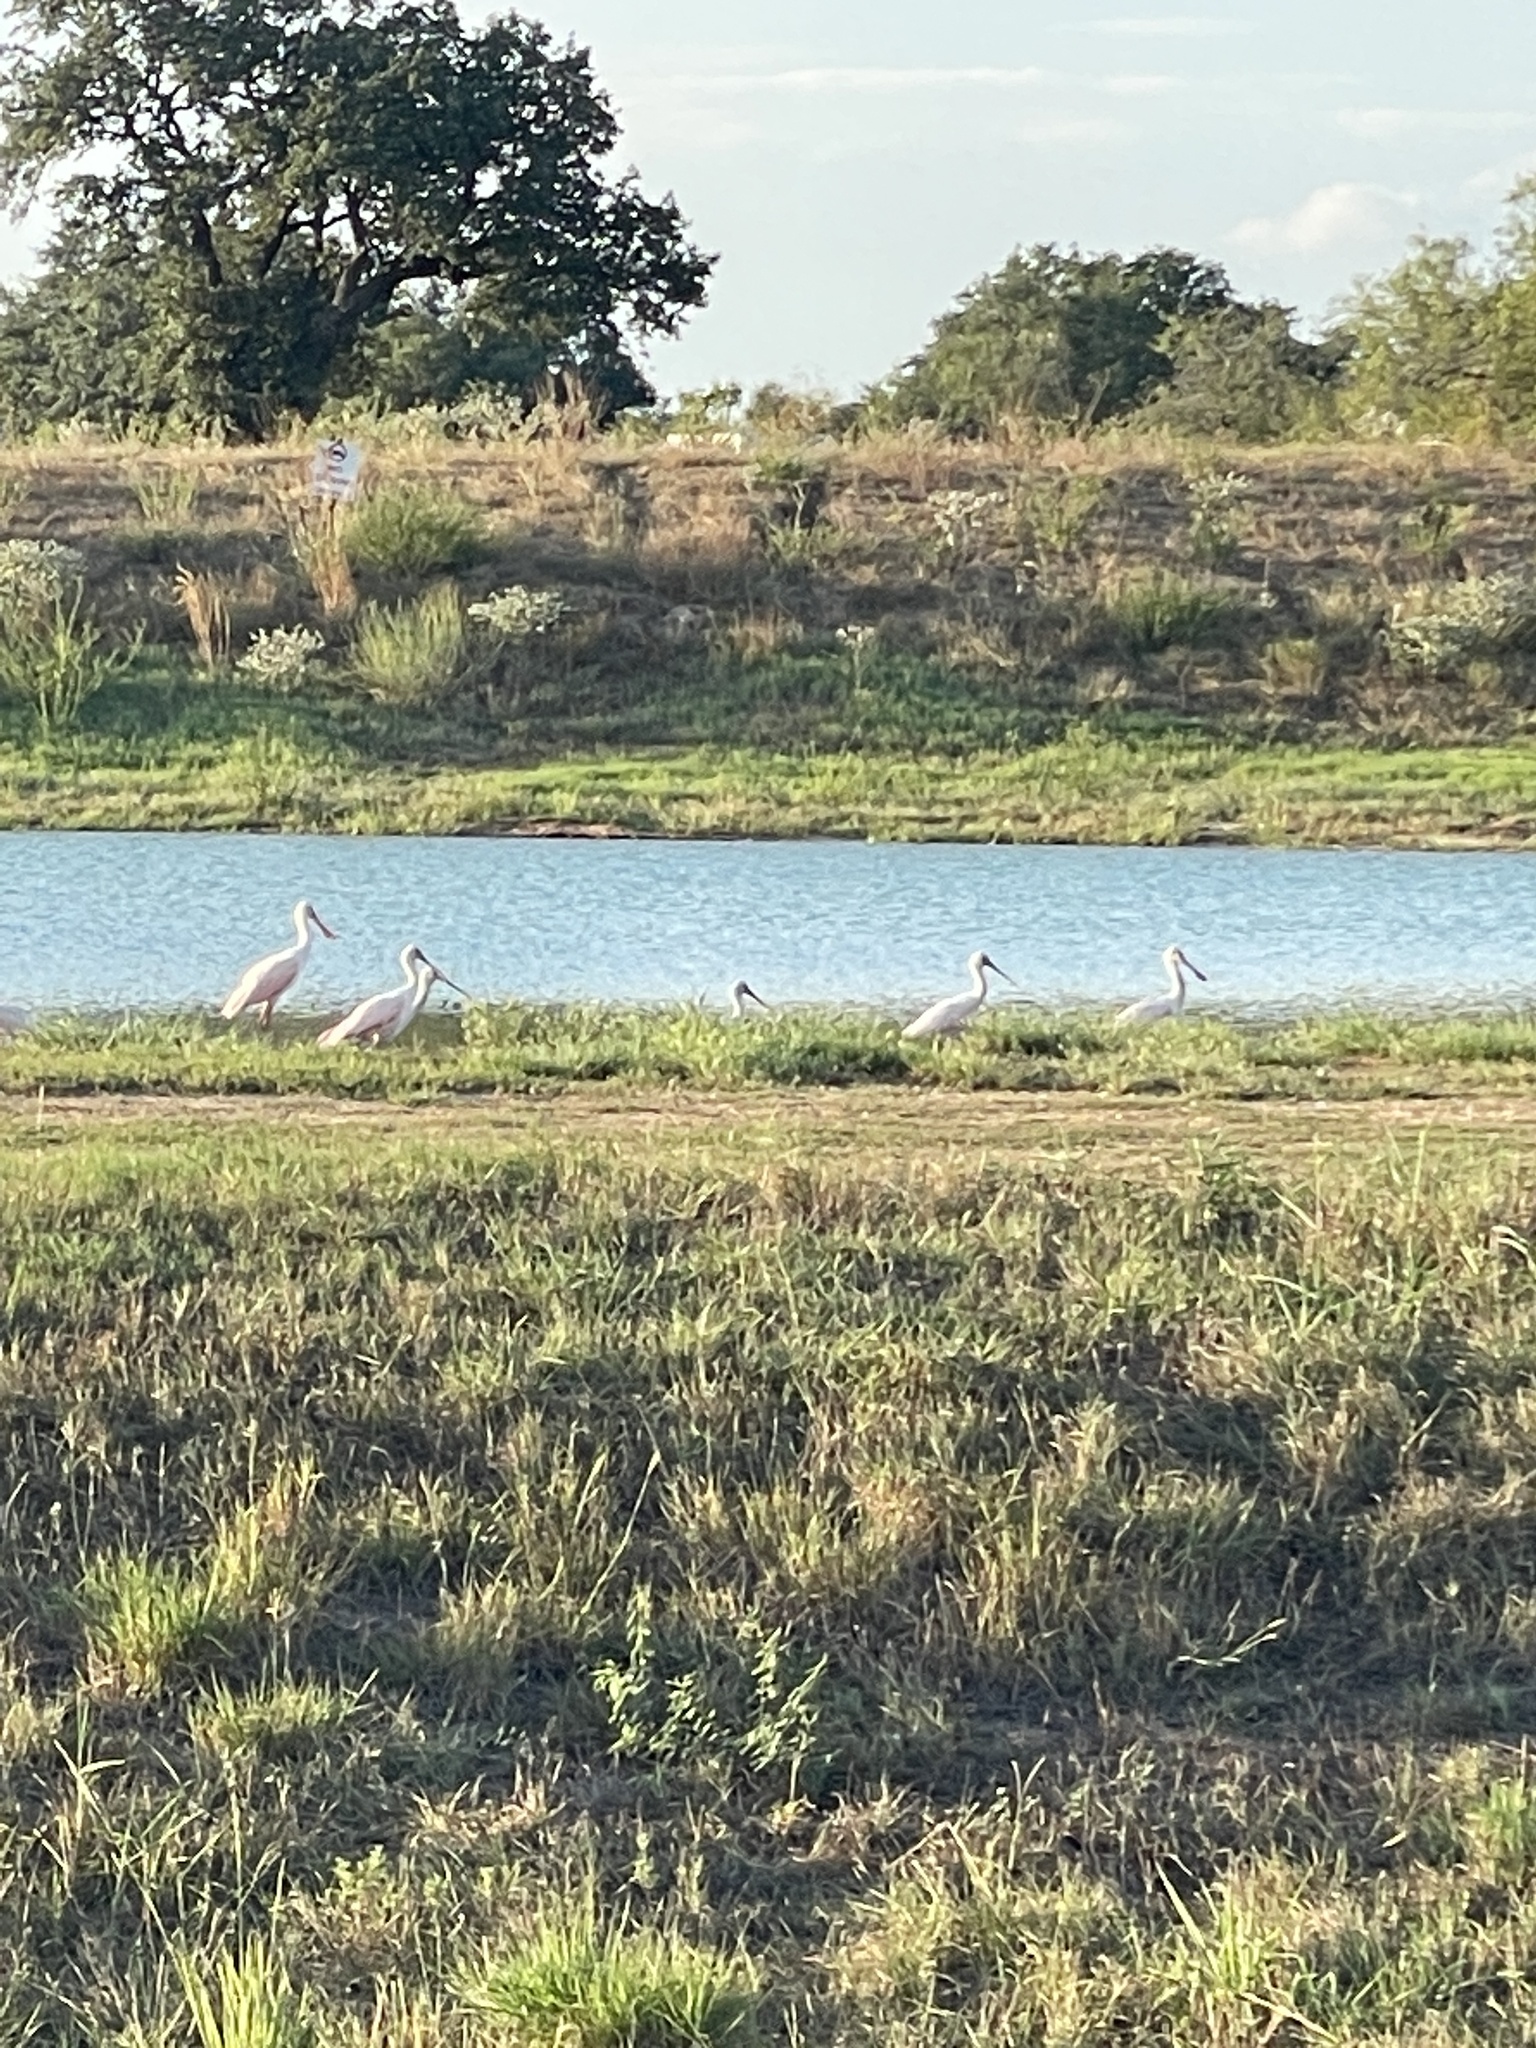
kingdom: Animalia
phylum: Chordata
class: Aves
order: Pelecaniformes
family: Threskiornithidae
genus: Platalea
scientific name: Platalea ajaja
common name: Roseate spoonbill
